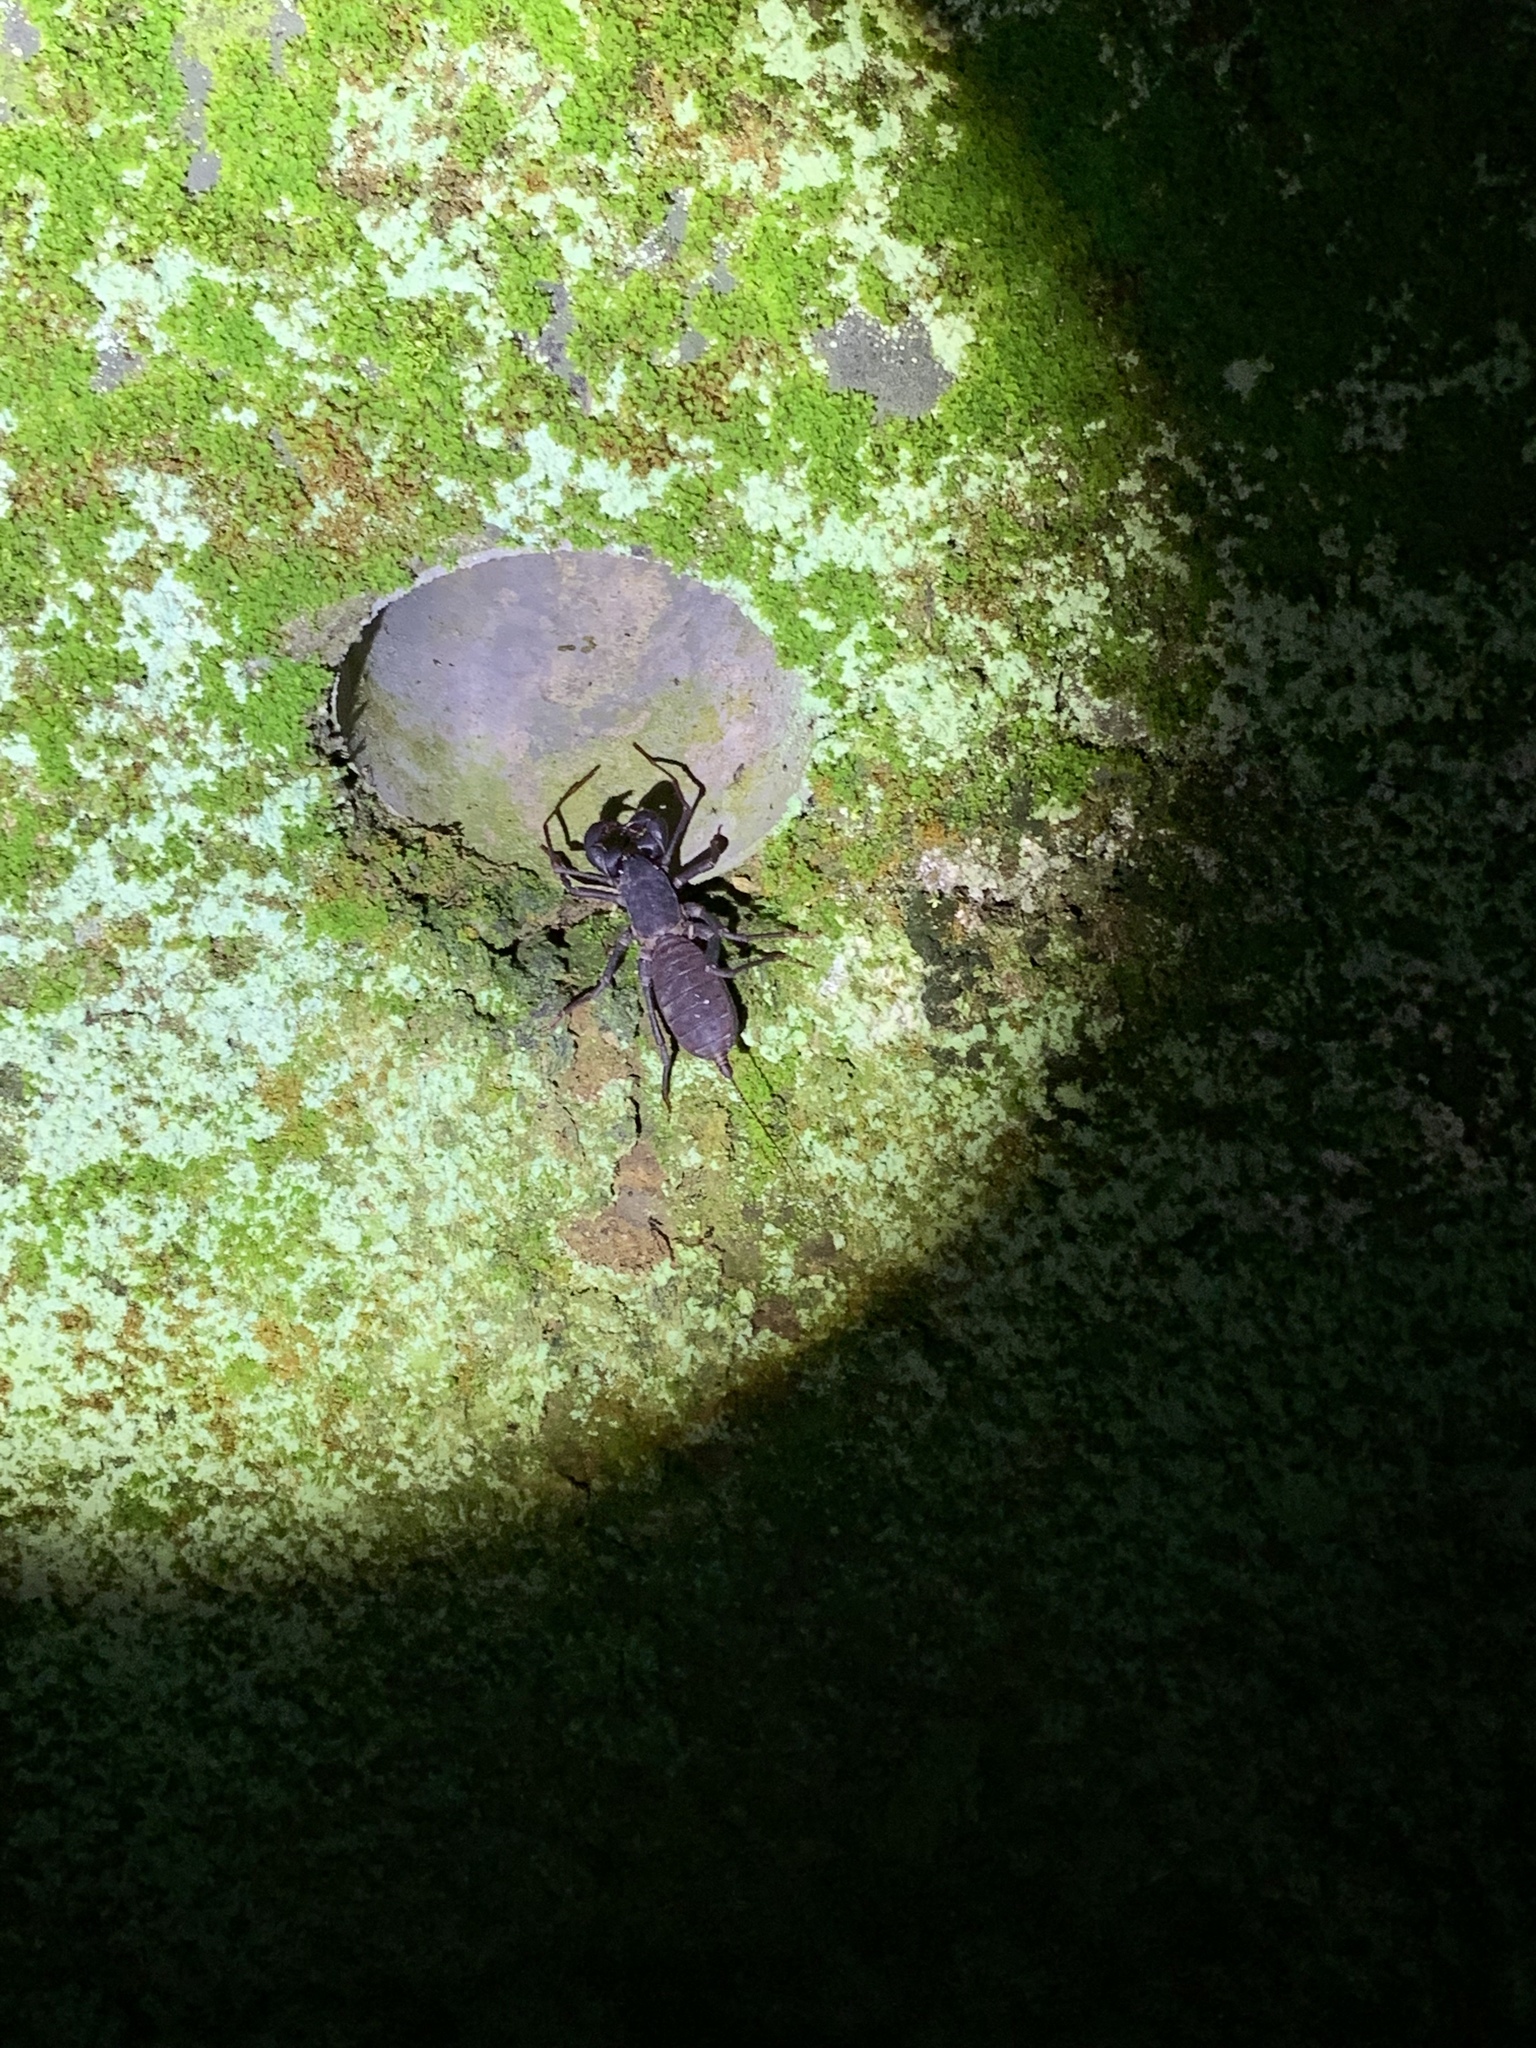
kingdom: Animalia
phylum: Arthropoda
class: Arachnida
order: Uropygi
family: Thelyphonidae
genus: Typopeltis
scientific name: Typopeltis crucifer
